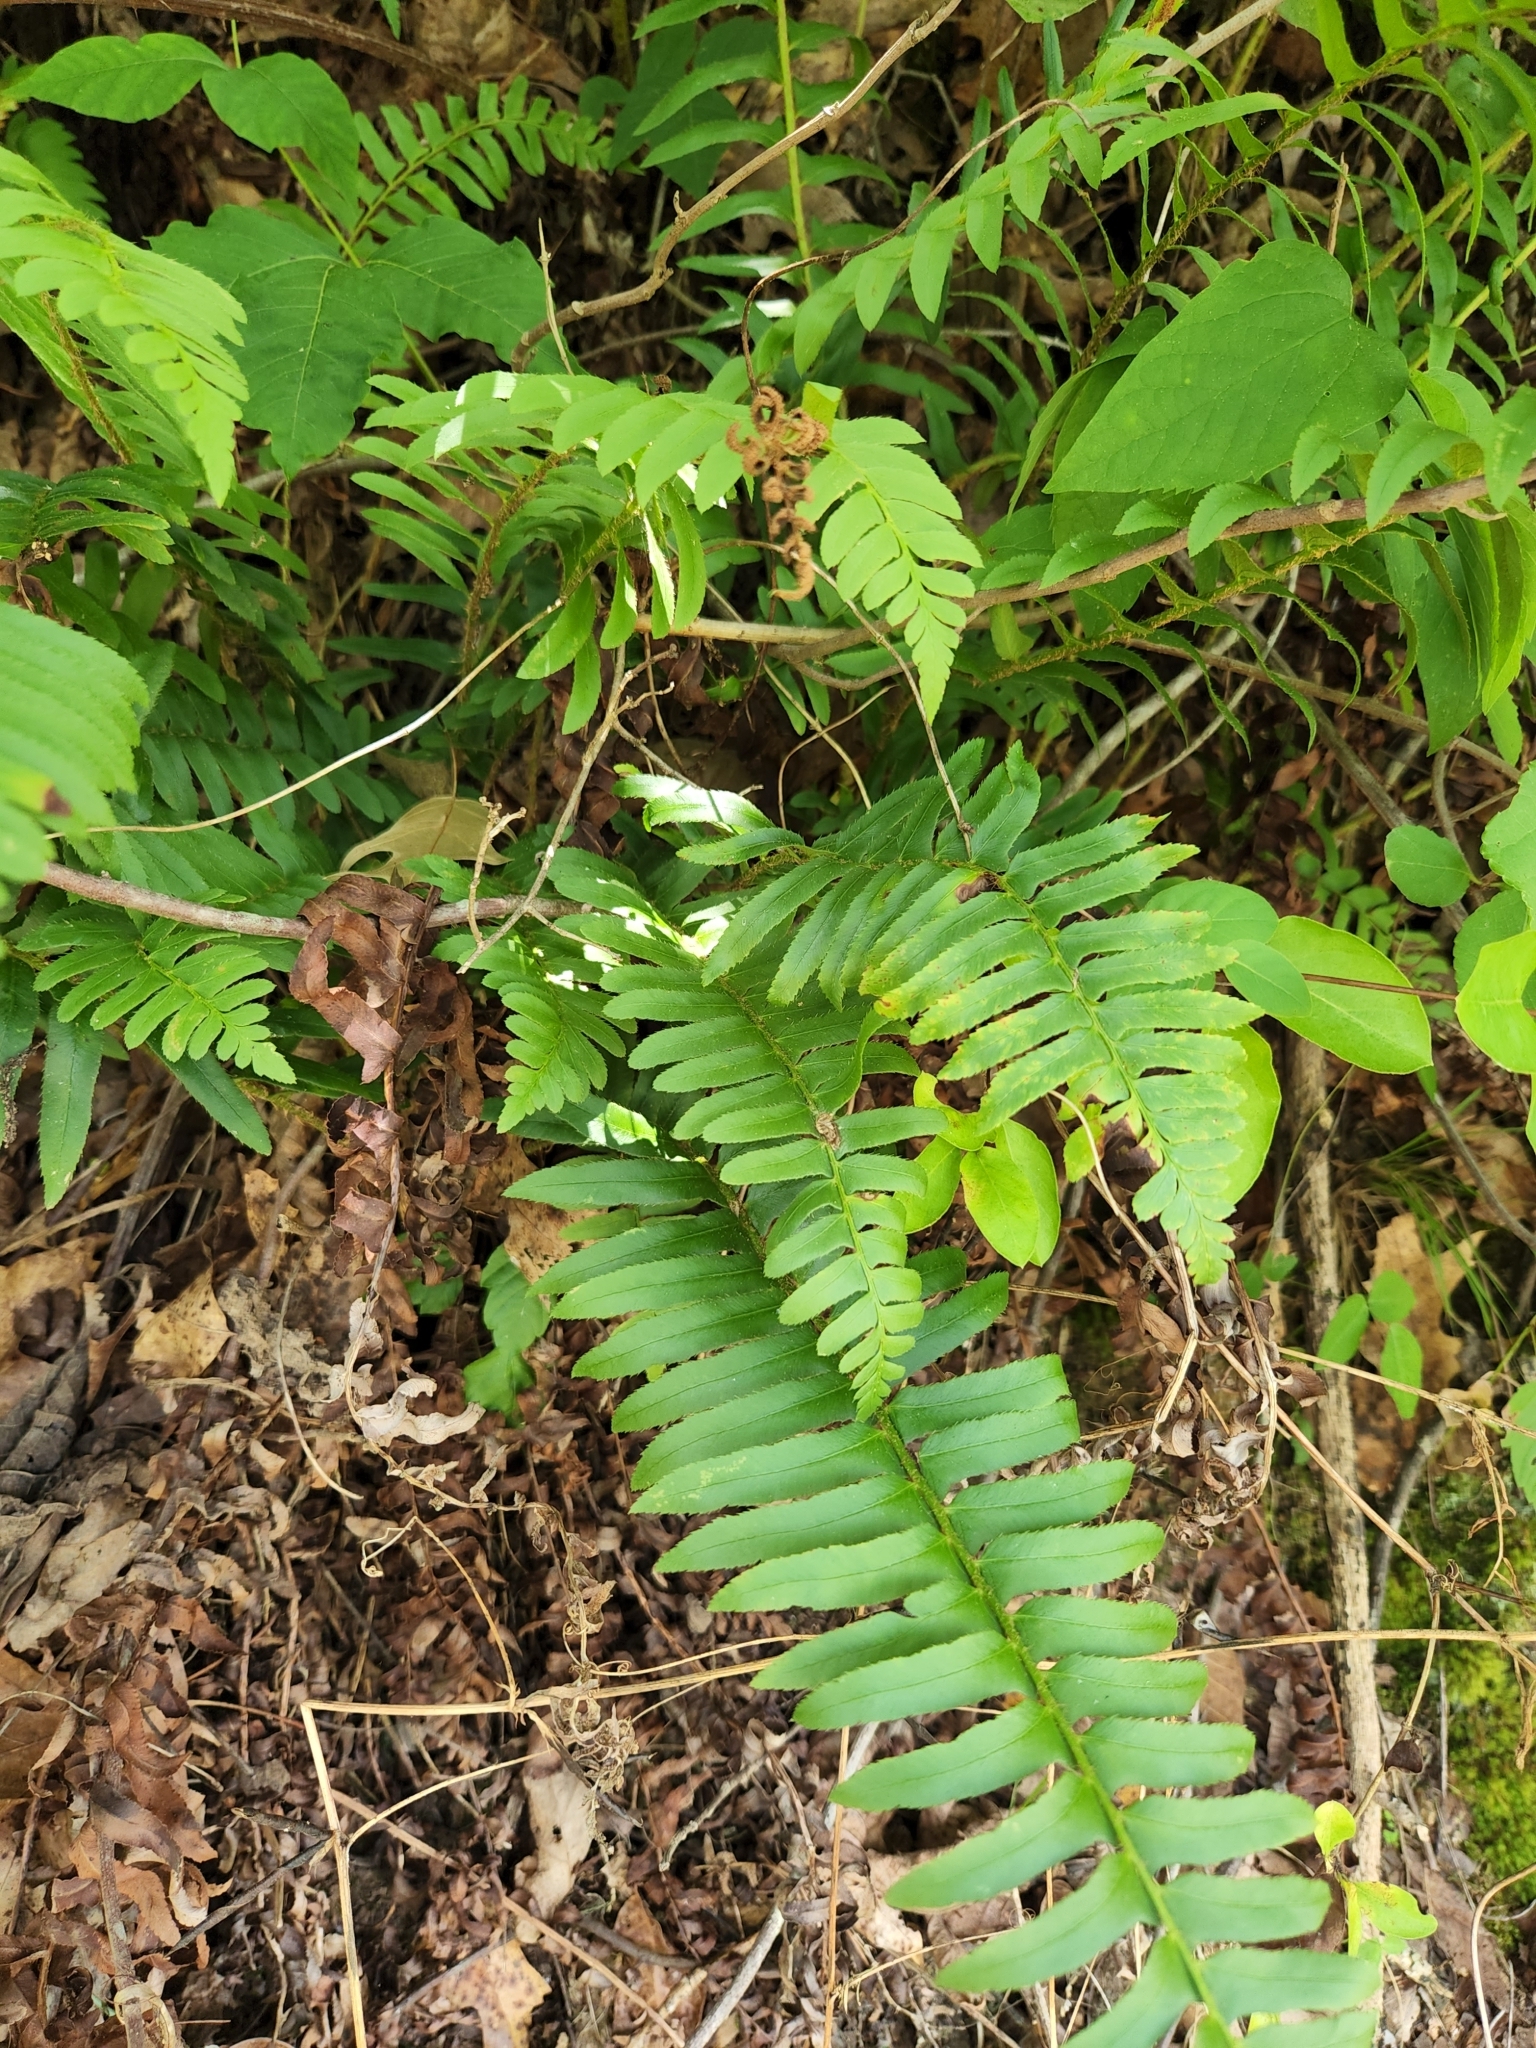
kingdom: Plantae
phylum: Tracheophyta
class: Polypodiopsida
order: Polypodiales
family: Dryopteridaceae
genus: Polystichum
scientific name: Polystichum acrostichoides
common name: Christmas fern
